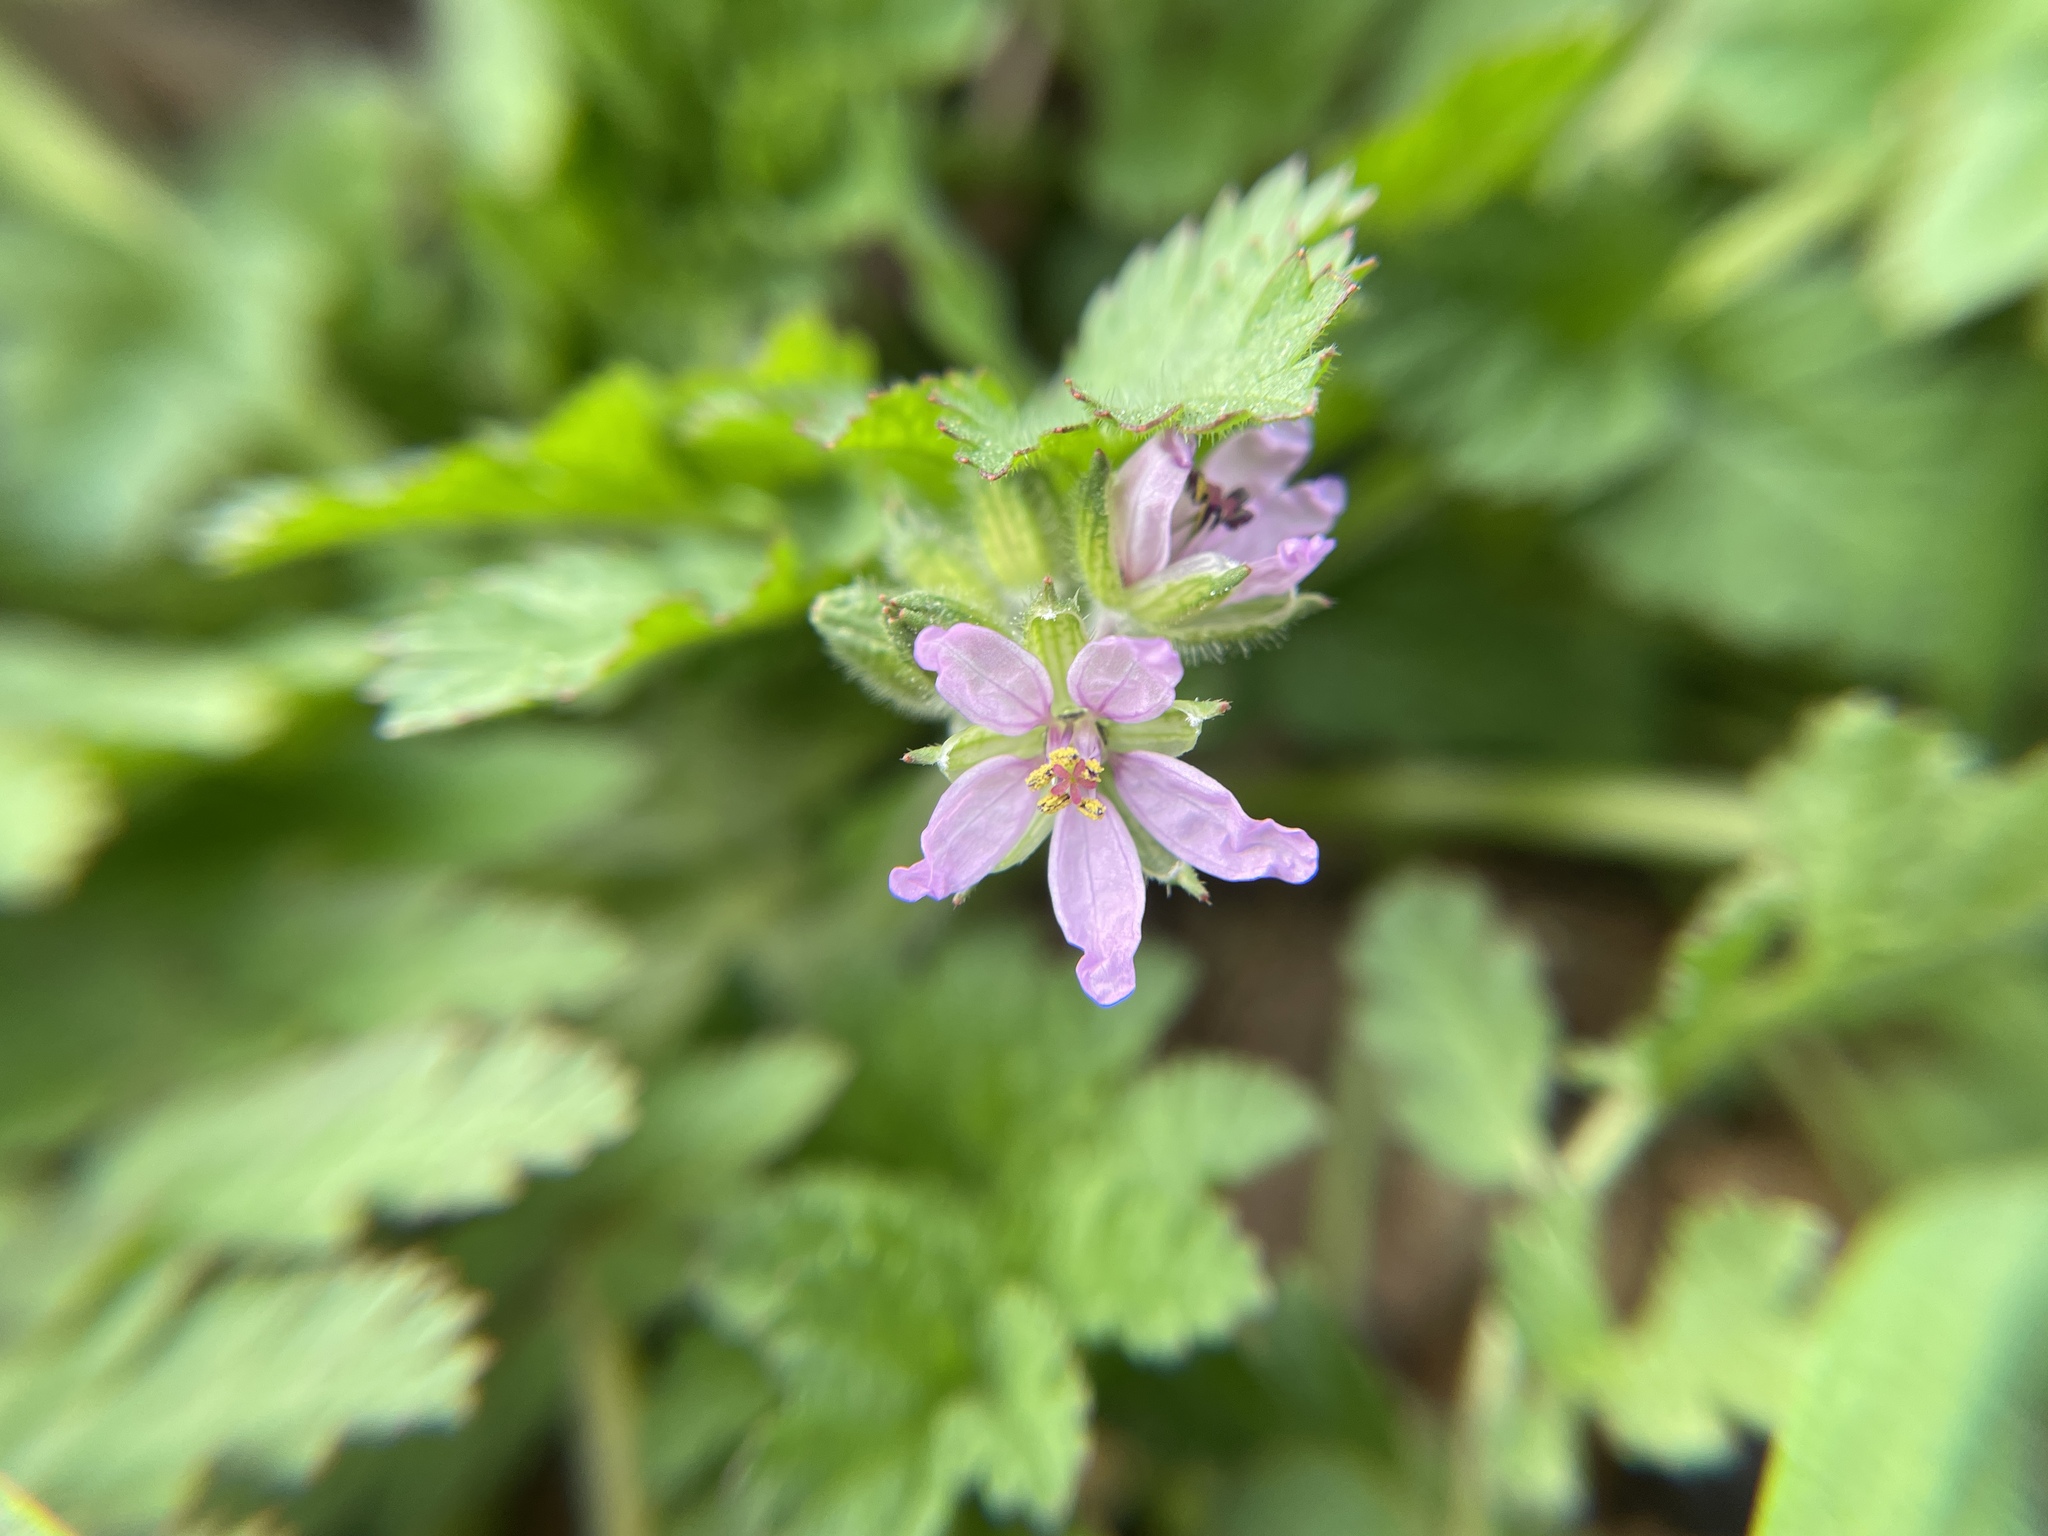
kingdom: Plantae
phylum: Tracheophyta
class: Magnoliopsida
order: Geraniales
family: Geraniaceae
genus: Erodium
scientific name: Erodium moschatum
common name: Musk stork's-bill
